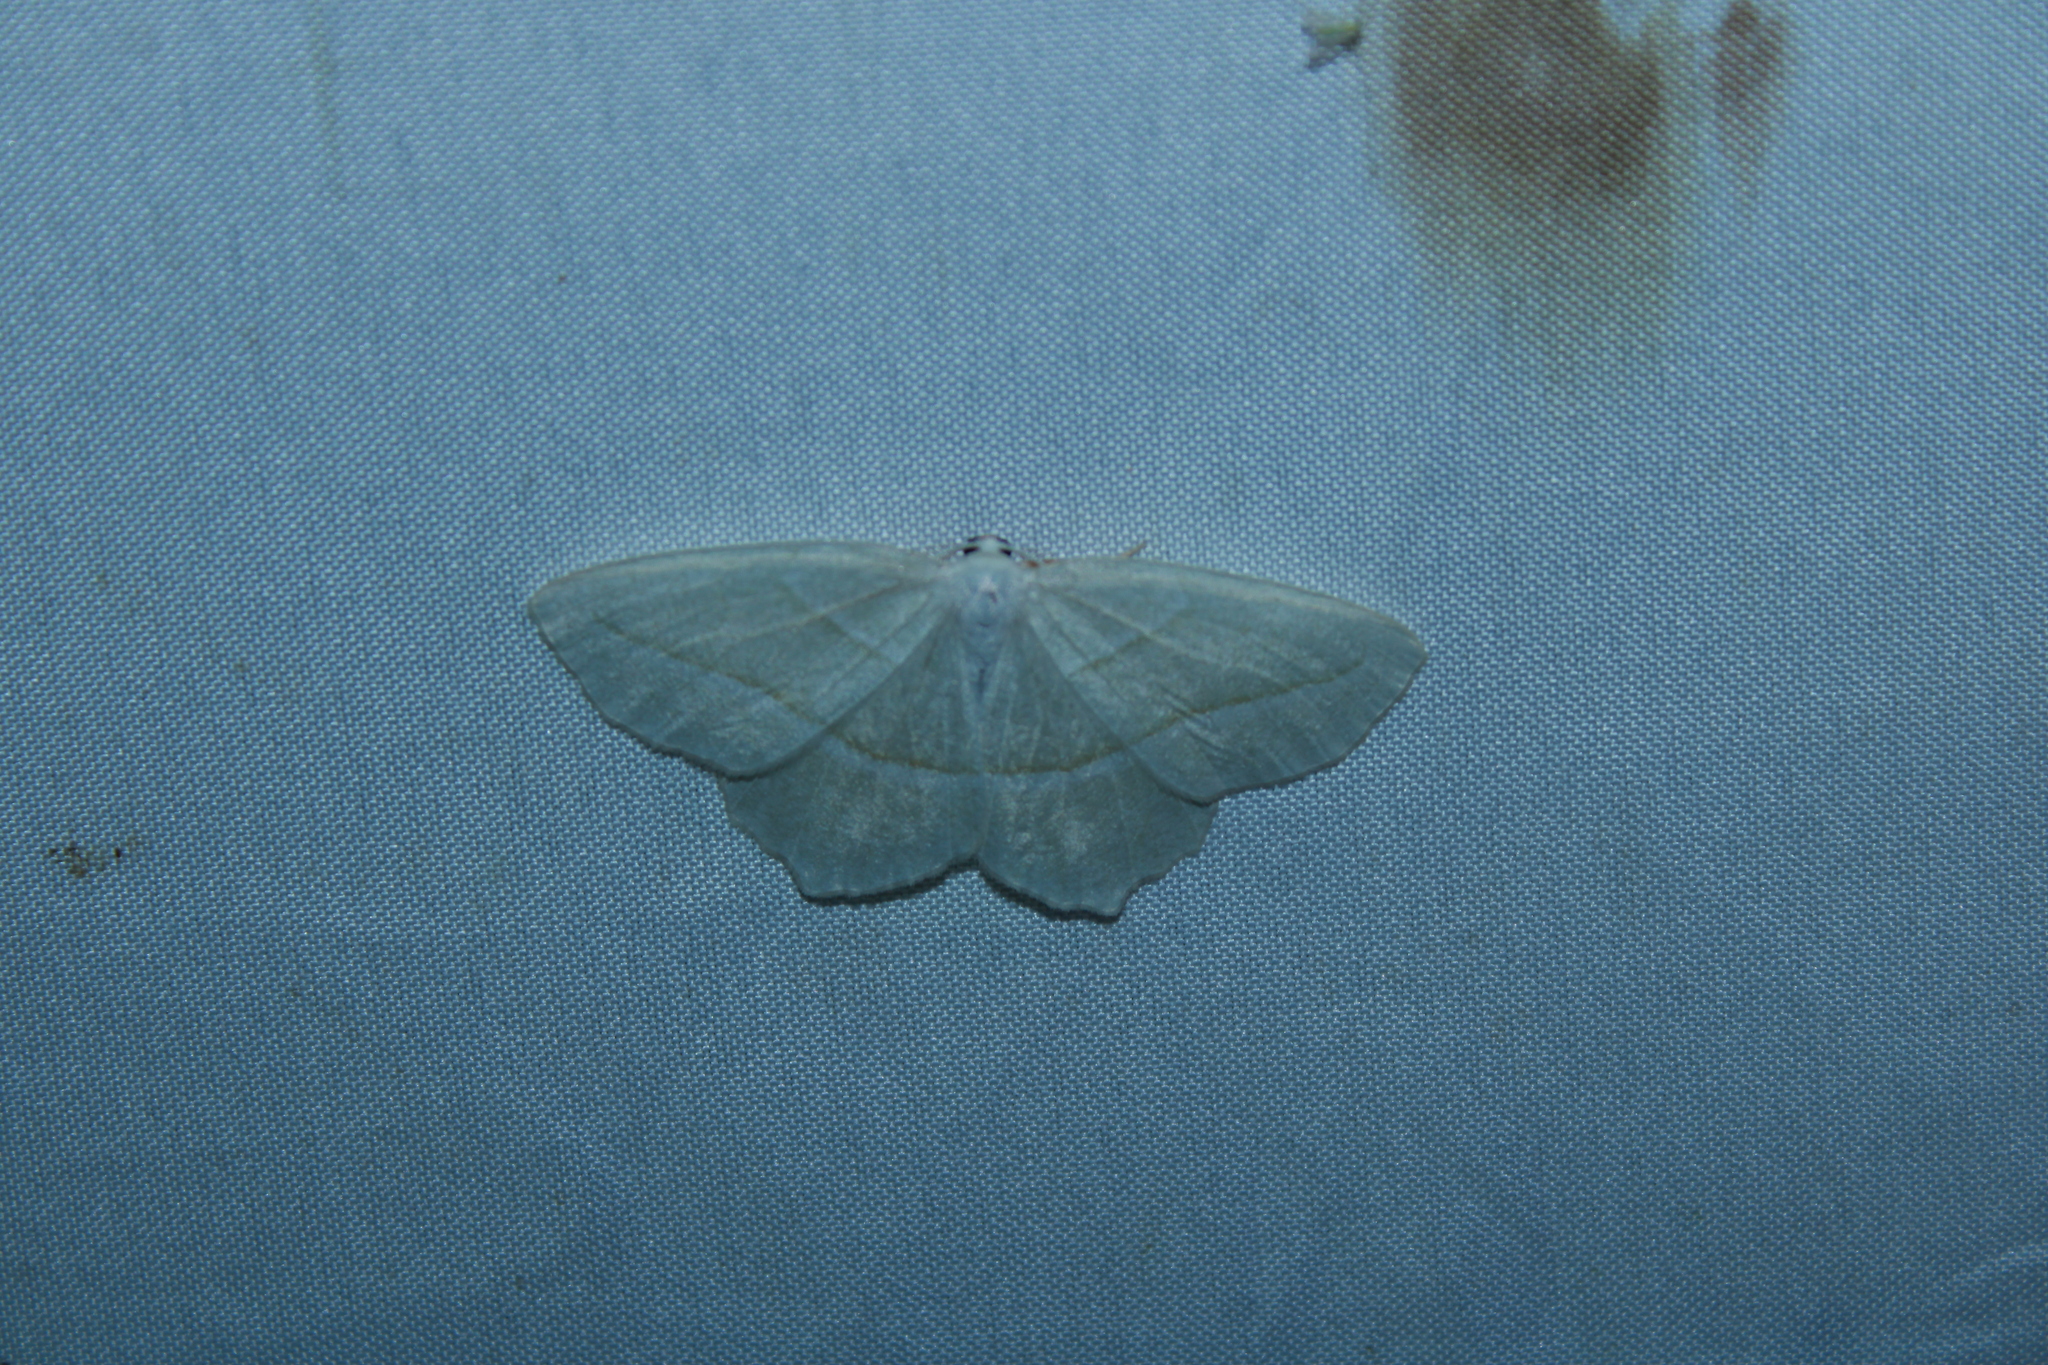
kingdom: Animalia
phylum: Arthropoda
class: Insecta
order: Lepidoptera
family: Geometridae
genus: Campaea
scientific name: Campaea perlata
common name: Fringed looper
